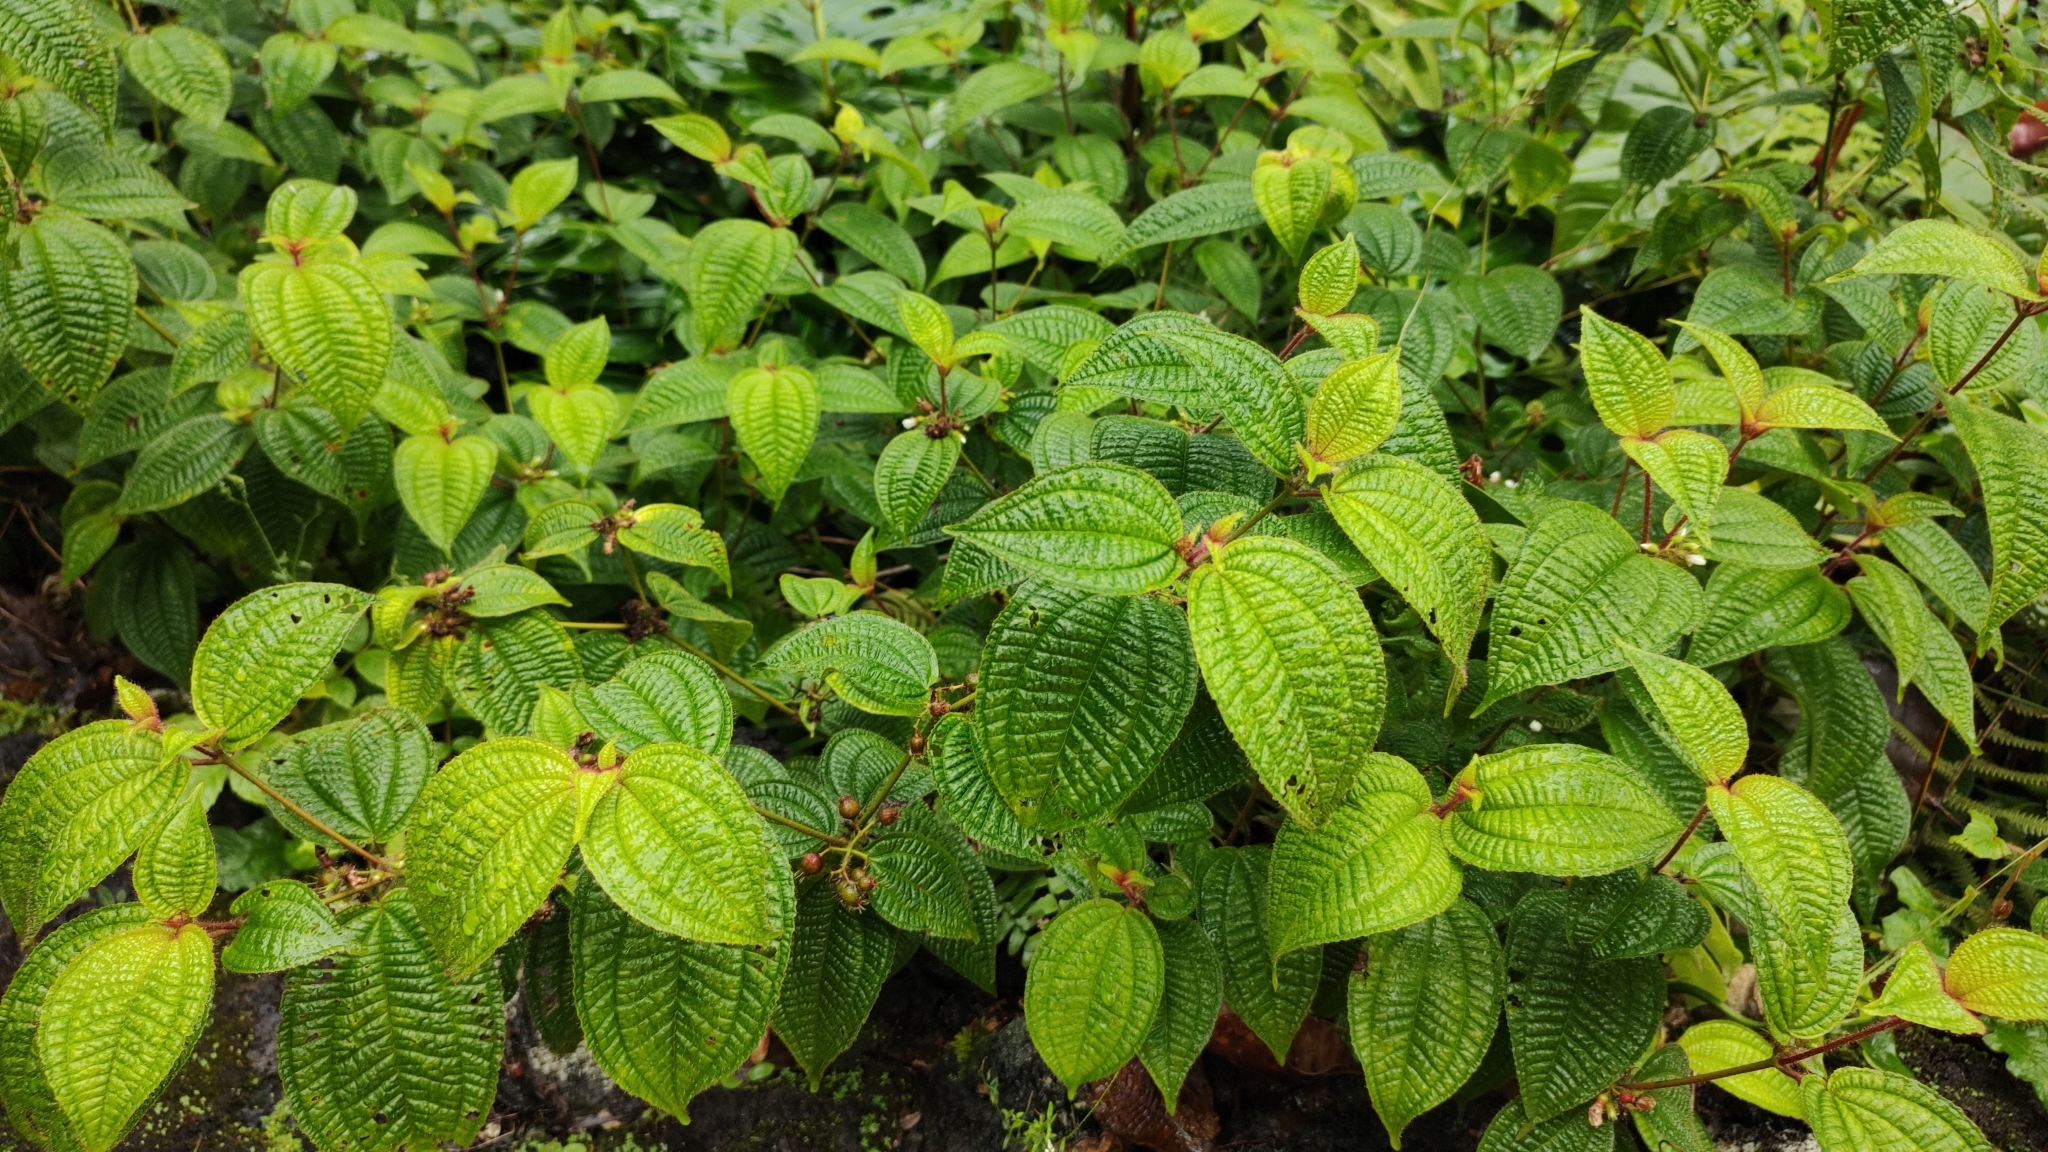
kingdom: Plantae
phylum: Tracheophyta
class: Magnoliopsida
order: Myrtales
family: Melastomataceae
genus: Miconia
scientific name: Miconia crenata
